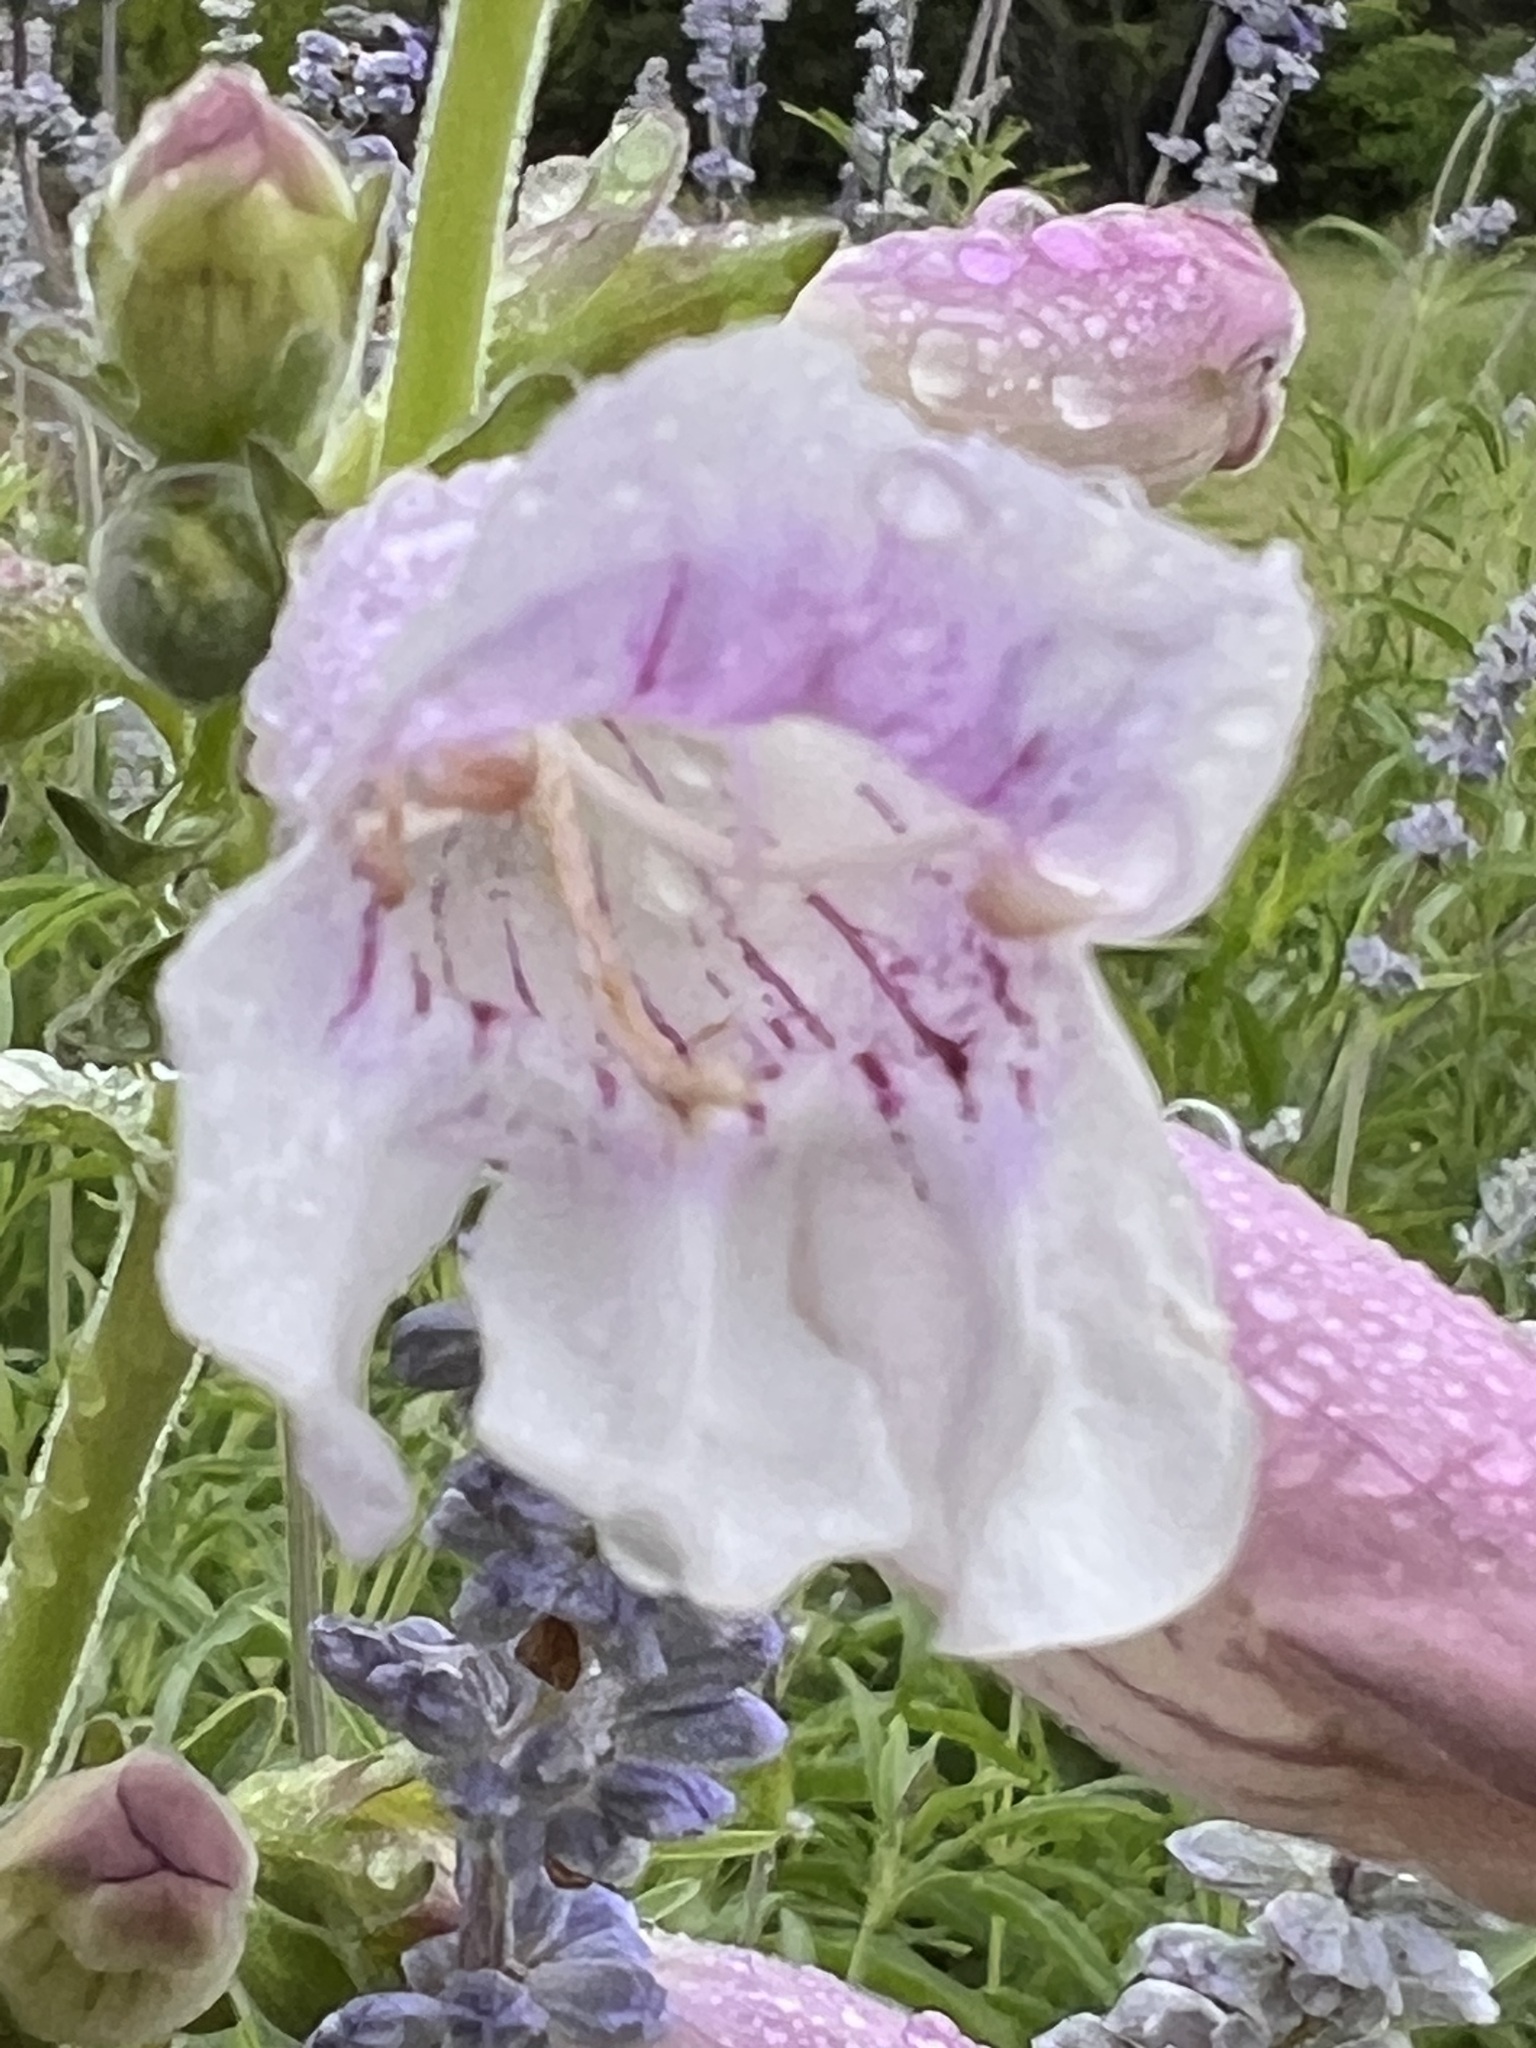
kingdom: Plantae
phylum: Tracheophyta
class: Magnoliopsida
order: Lamiales
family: Plantaginaceae
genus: Penstemon
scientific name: Penstemon cobaea
